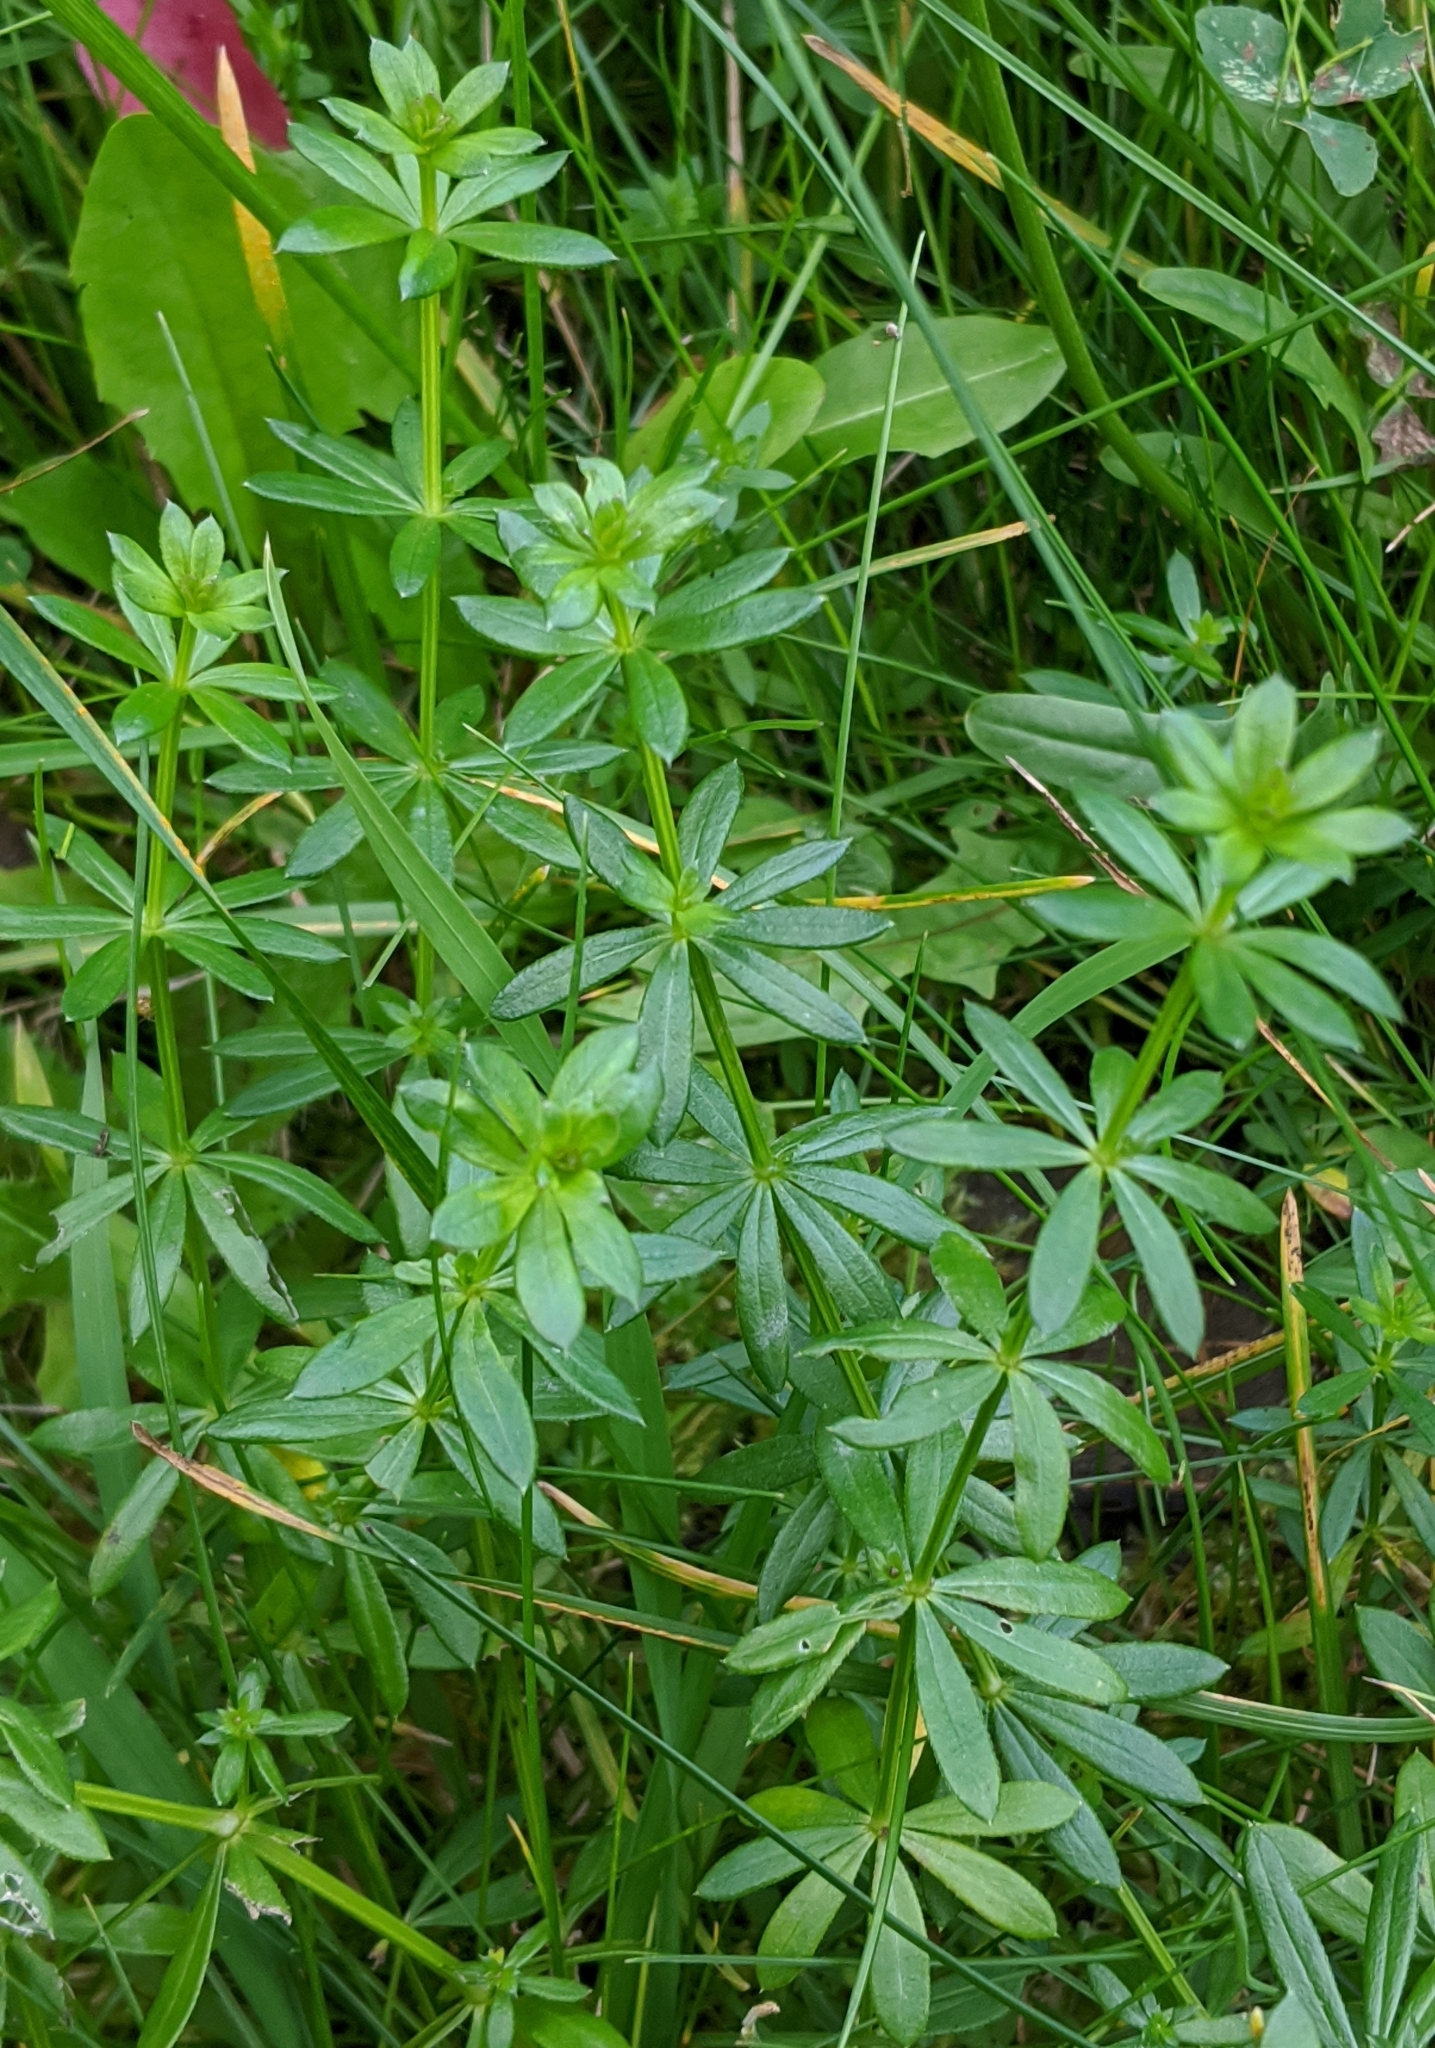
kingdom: Plantae
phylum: Tracheophyta
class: Magnoliopsida
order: Gentianales
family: Rubiaceae
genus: Galium
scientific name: Galium mollugo
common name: Hedge bedstraw
